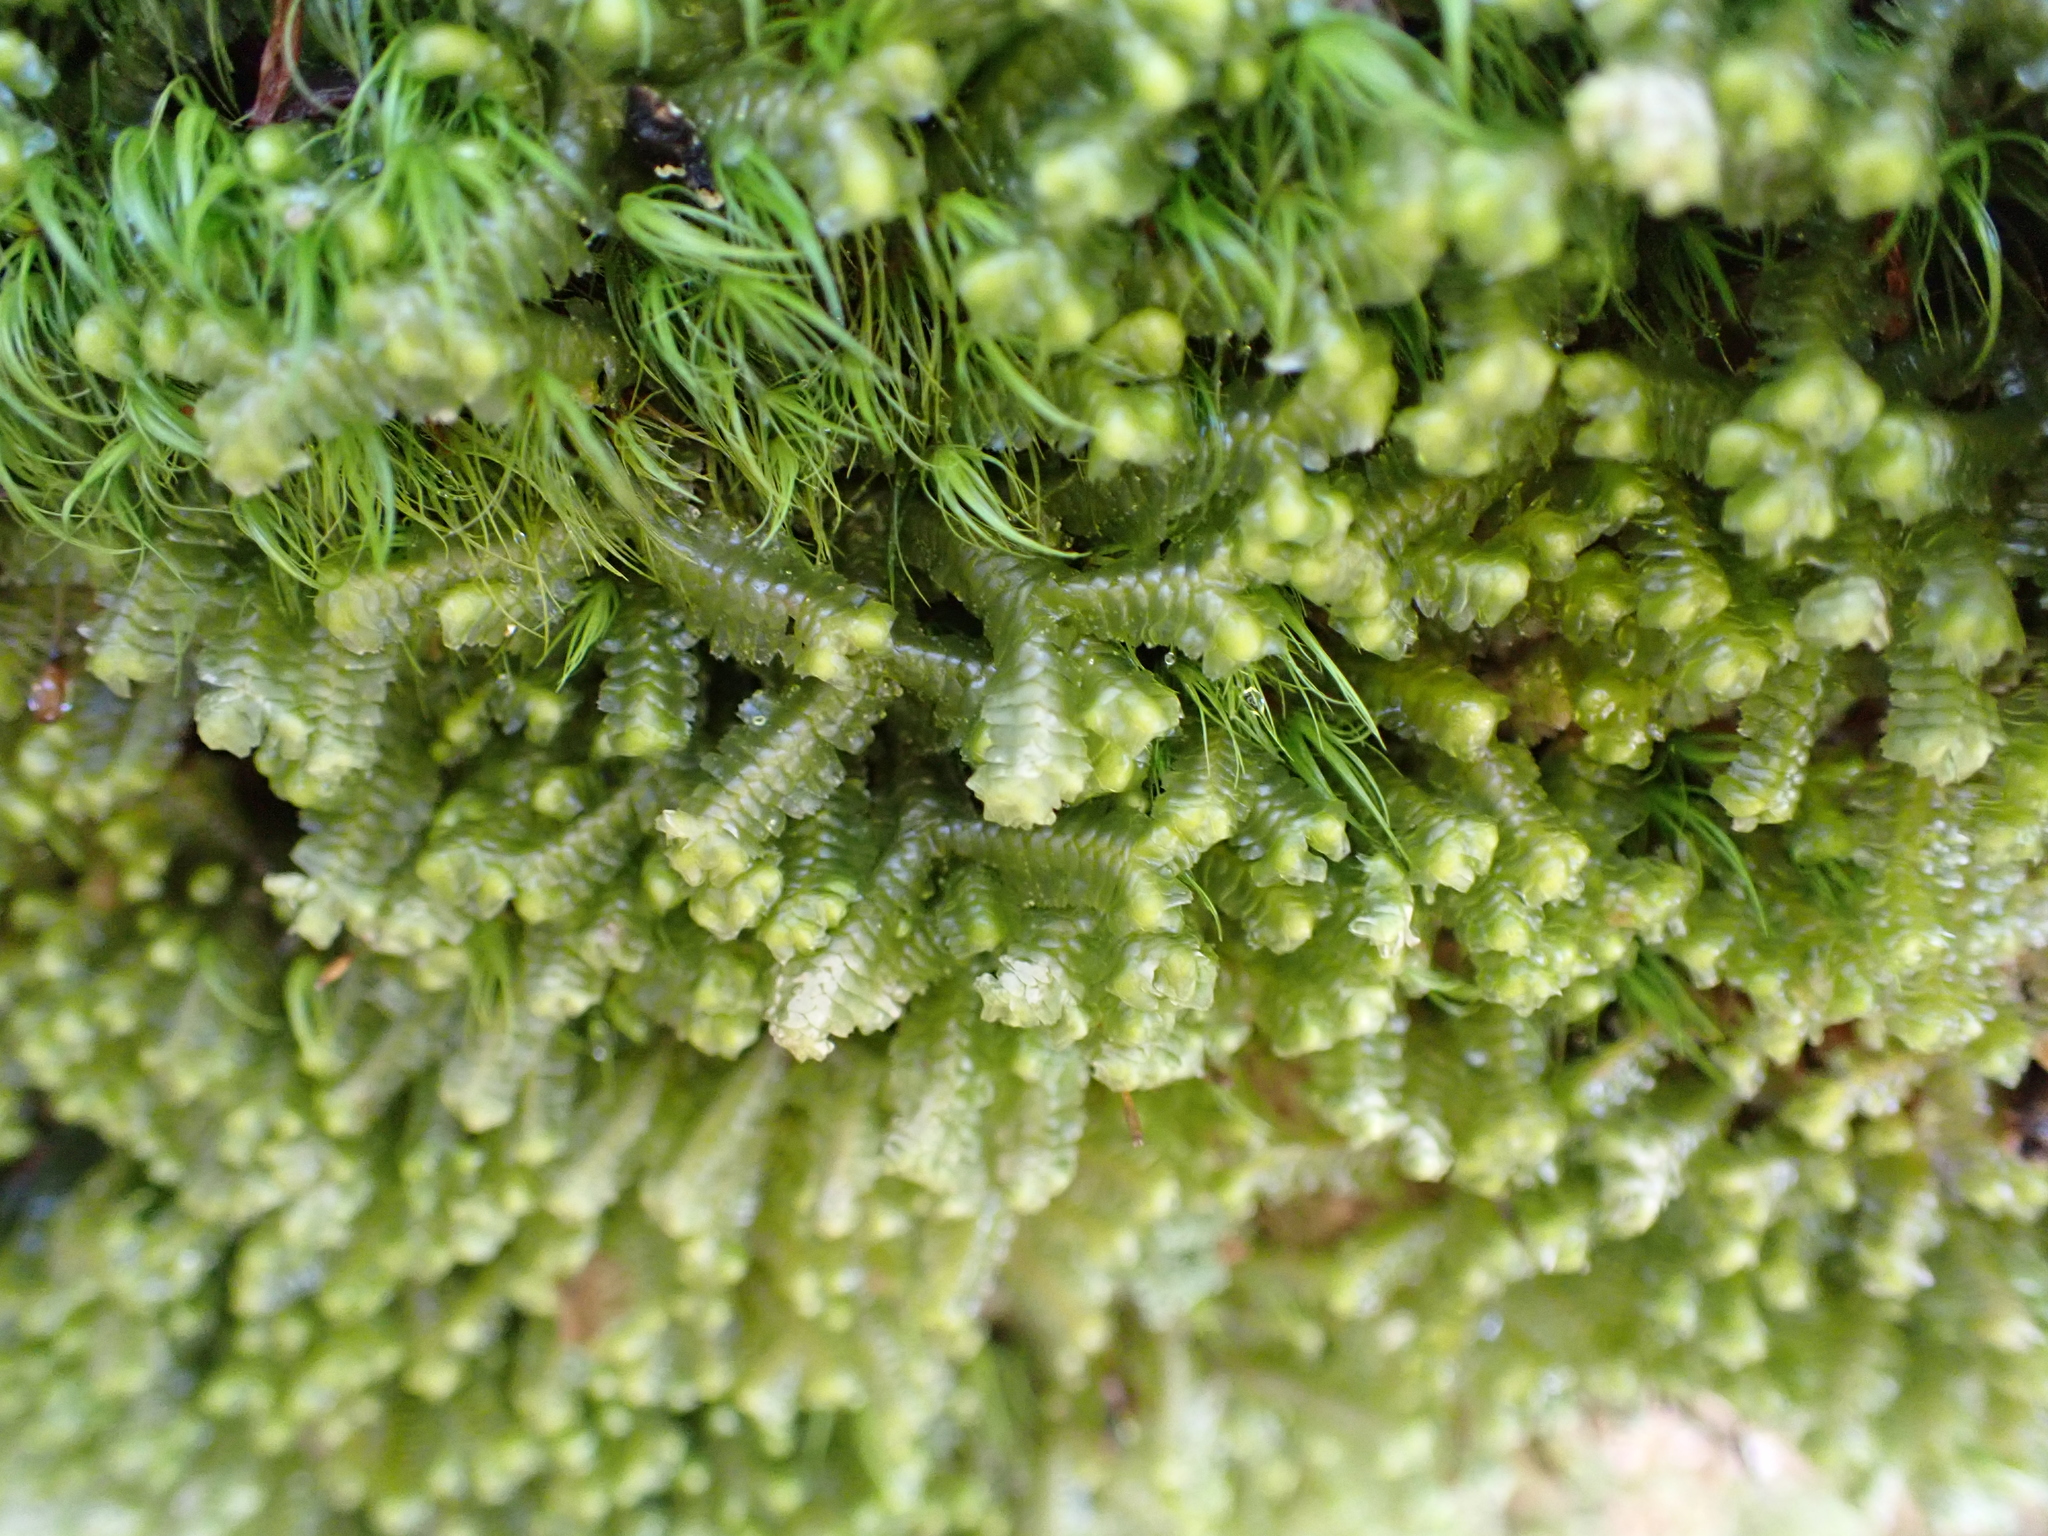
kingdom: Plantae
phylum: Marchantiophyta
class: Jungermanniopsida
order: Jungermanniales
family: Lepidoziaceae
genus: Bazzania
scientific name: Bazzania trilobata
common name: Three-lobed whipwort
